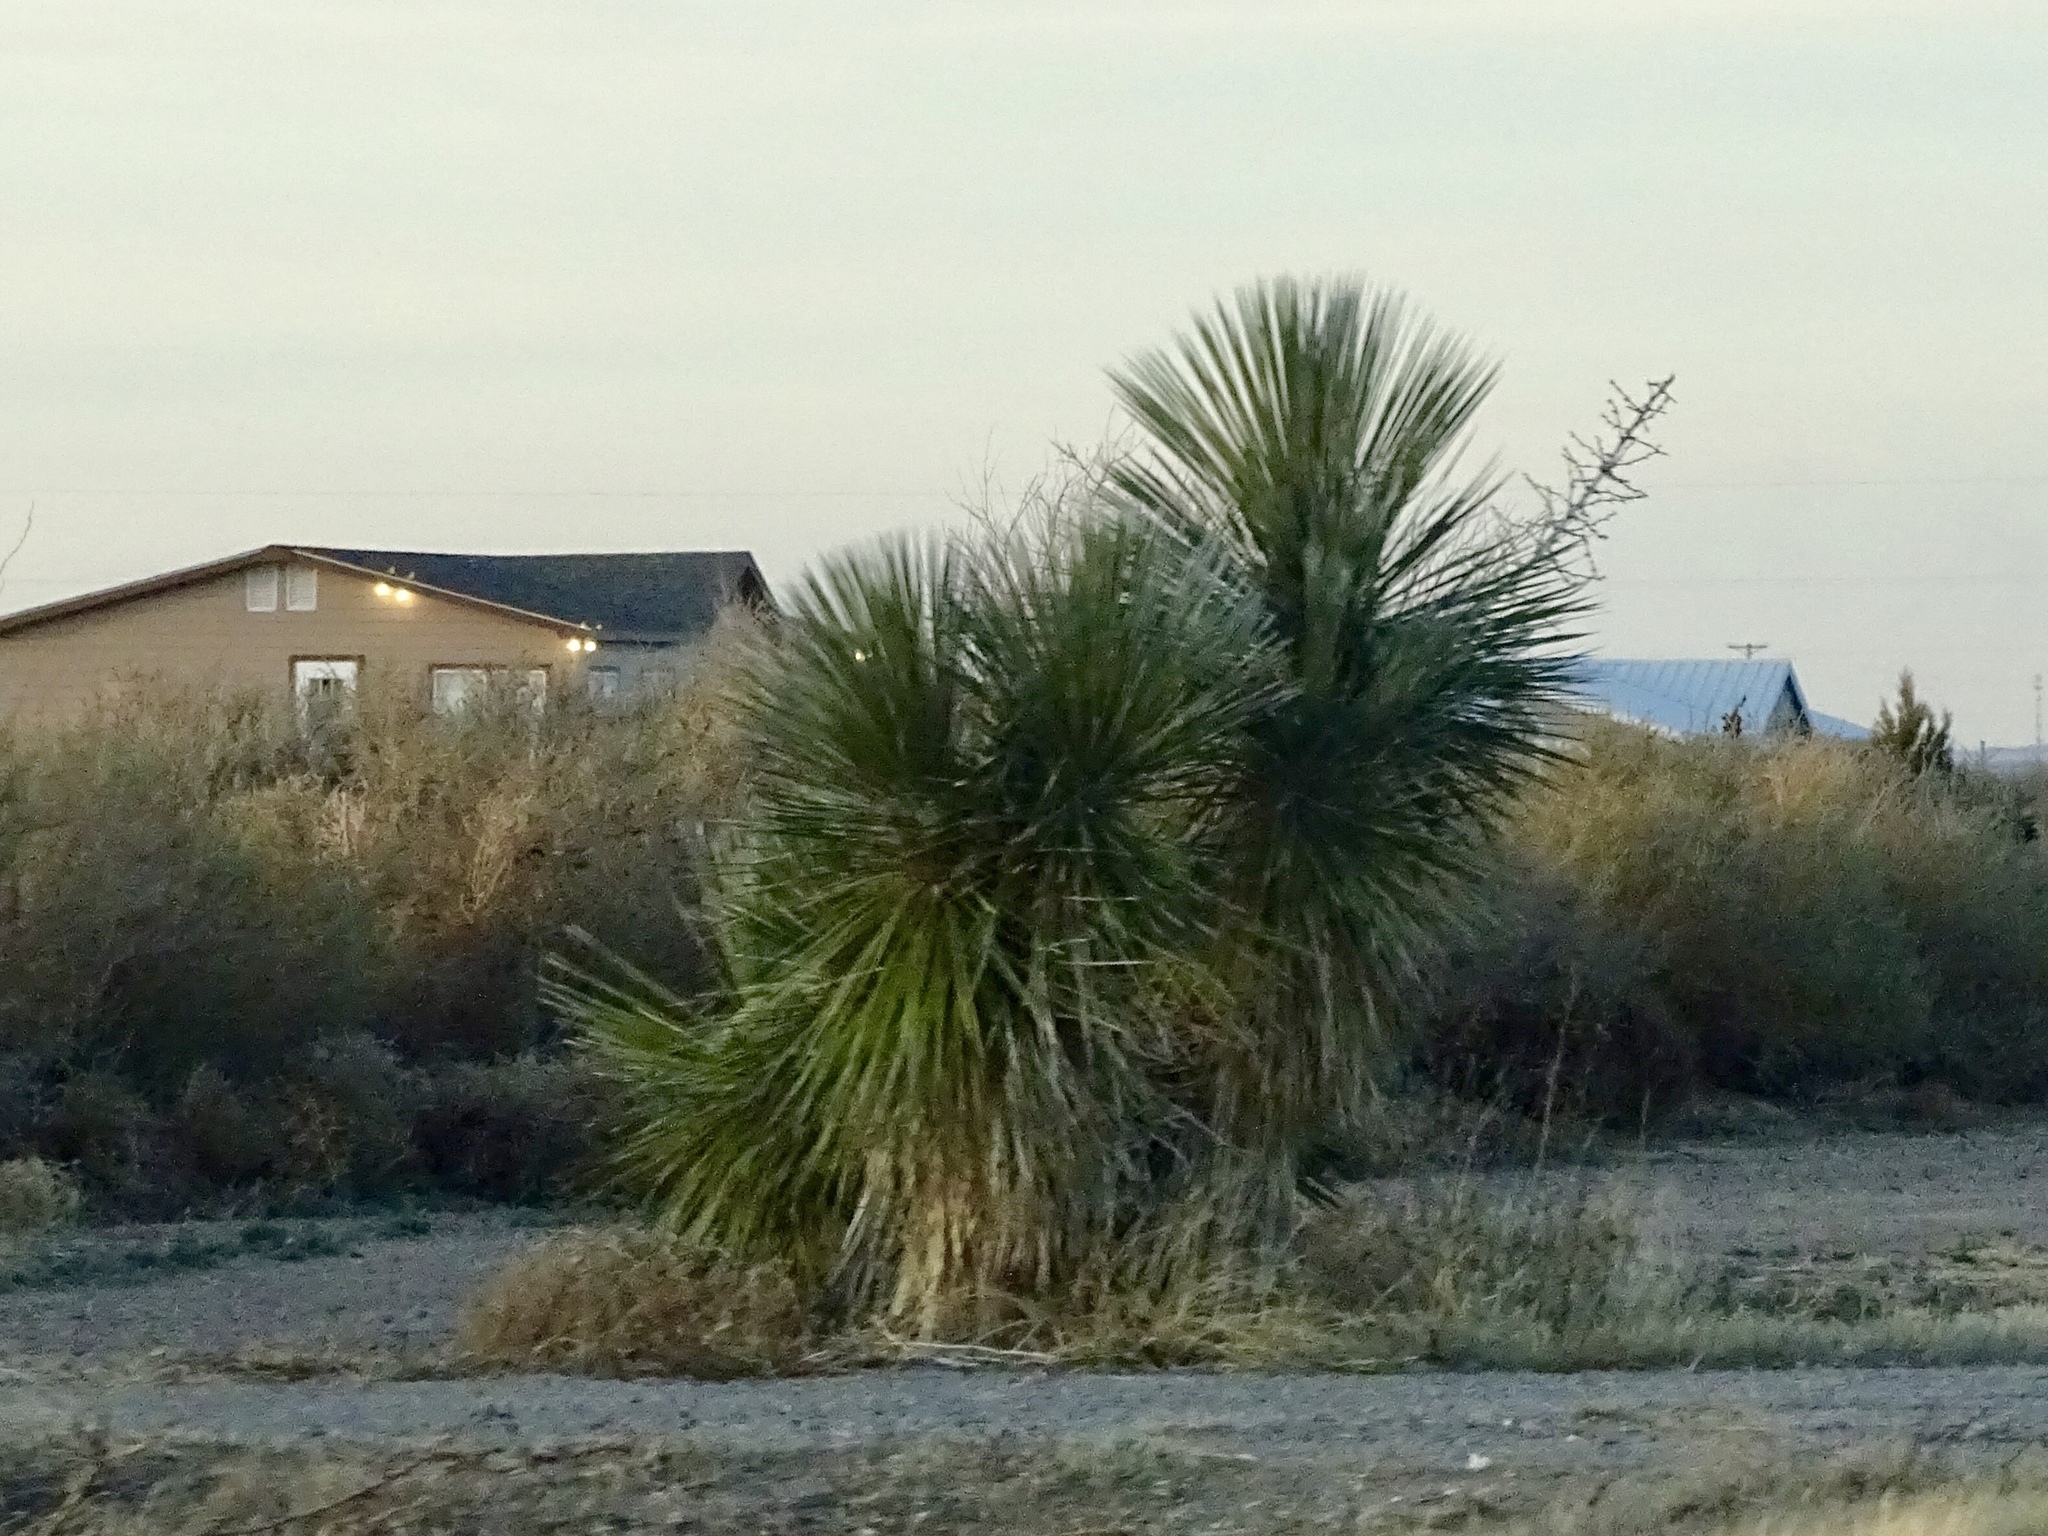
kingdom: Plantae
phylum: Tracheophyta
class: Liliopsida
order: Asparagales
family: Asparagaceae
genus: Yucca
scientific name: Yucca elata
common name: Palmella
